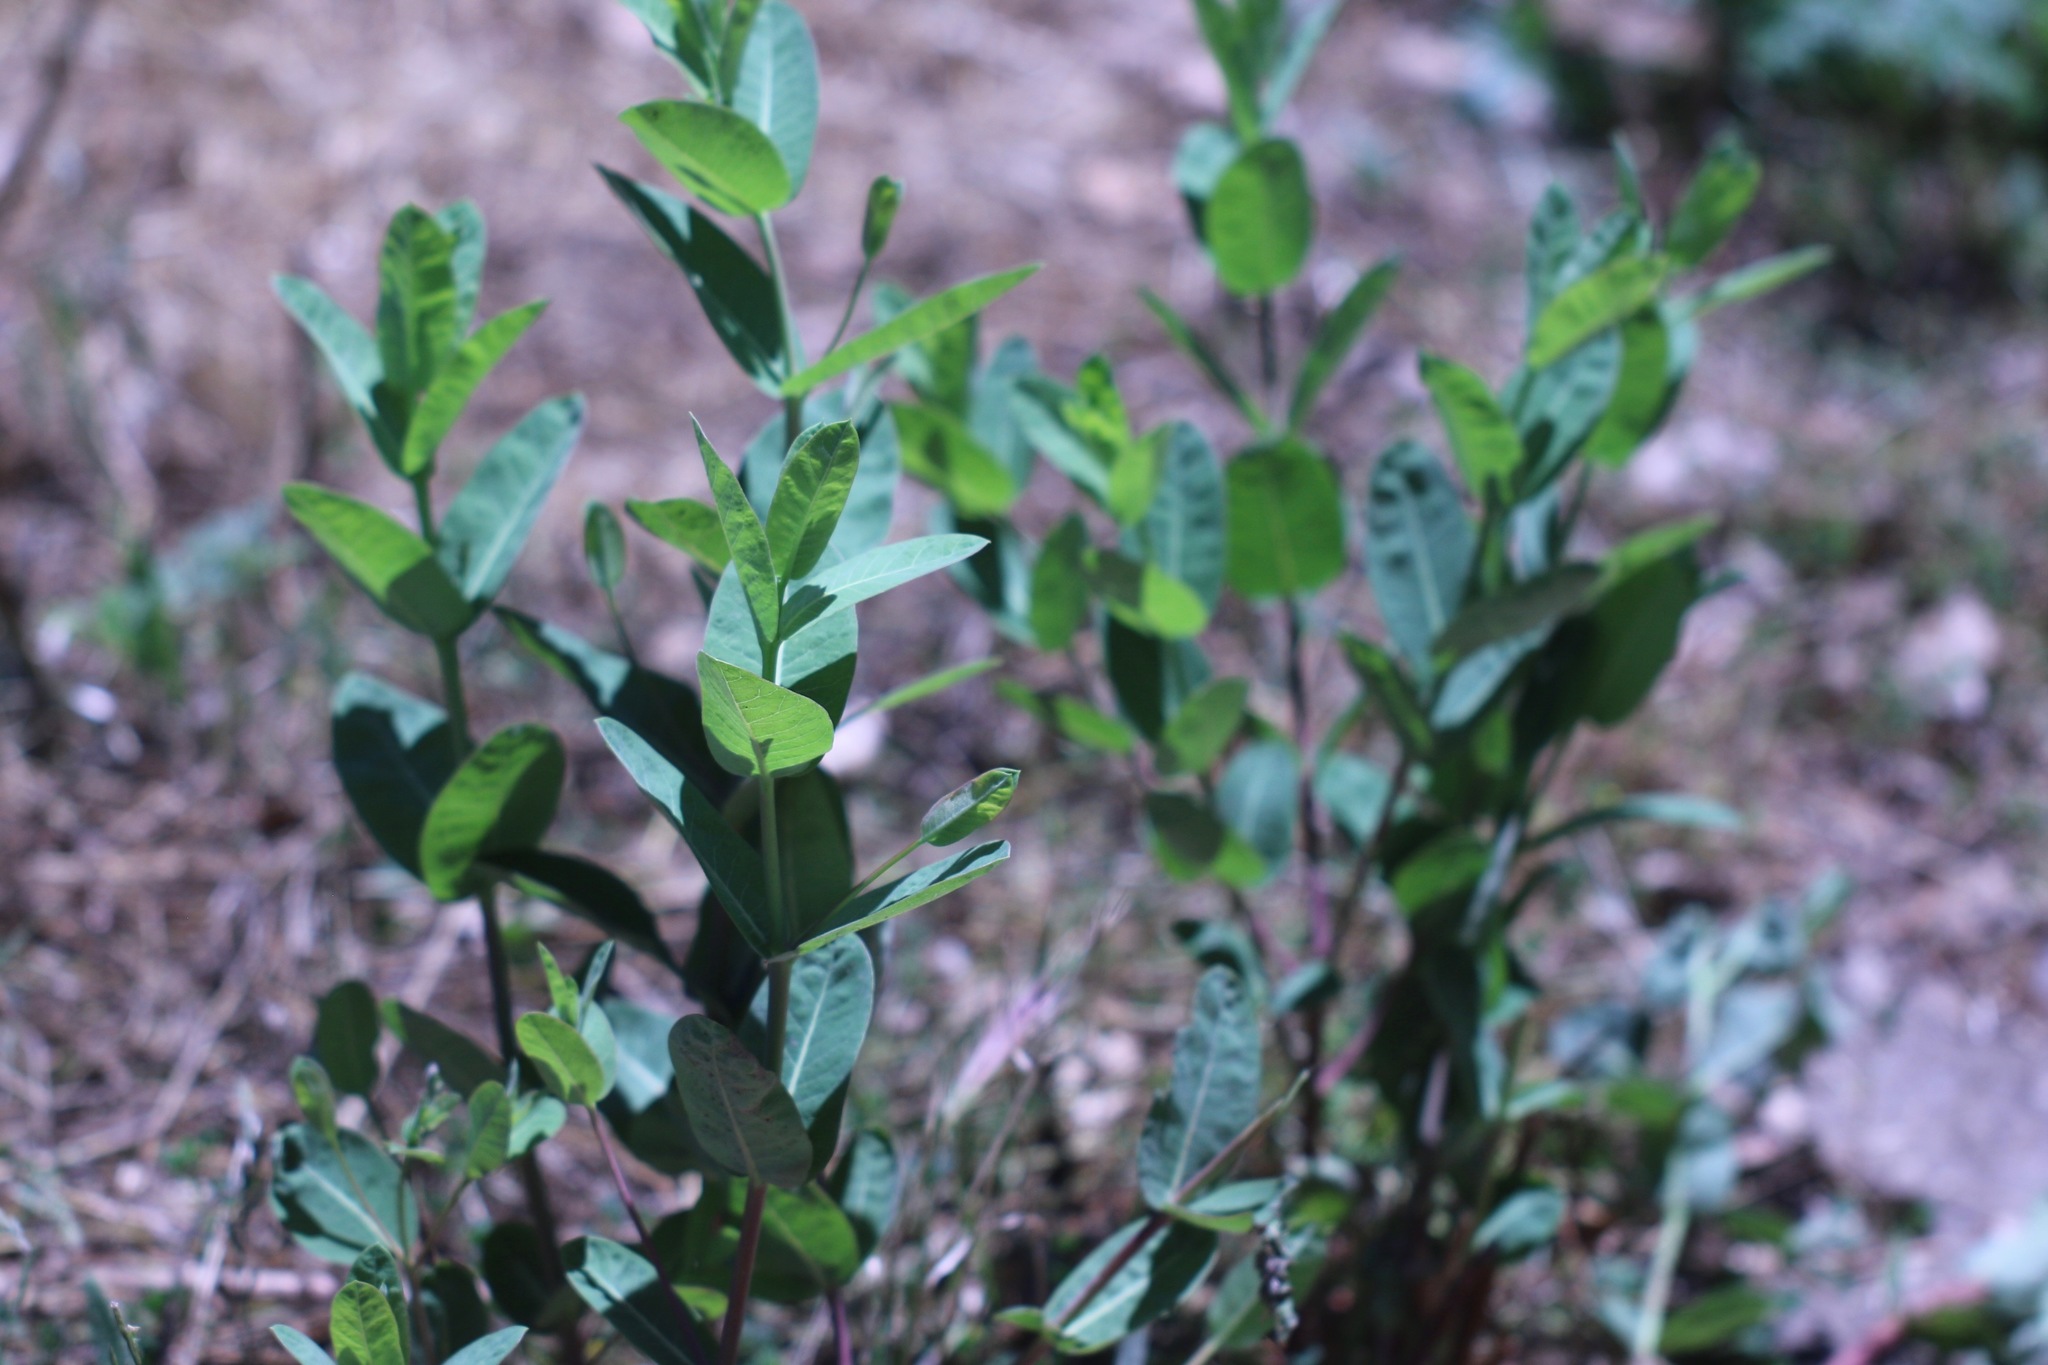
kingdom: Plantae
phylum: Tracheophyta
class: Magnoliopsida
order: Gentianales
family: Apocynaceae
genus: Apocynum
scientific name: Apocynum cannabinum
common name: Hemp dogbane
